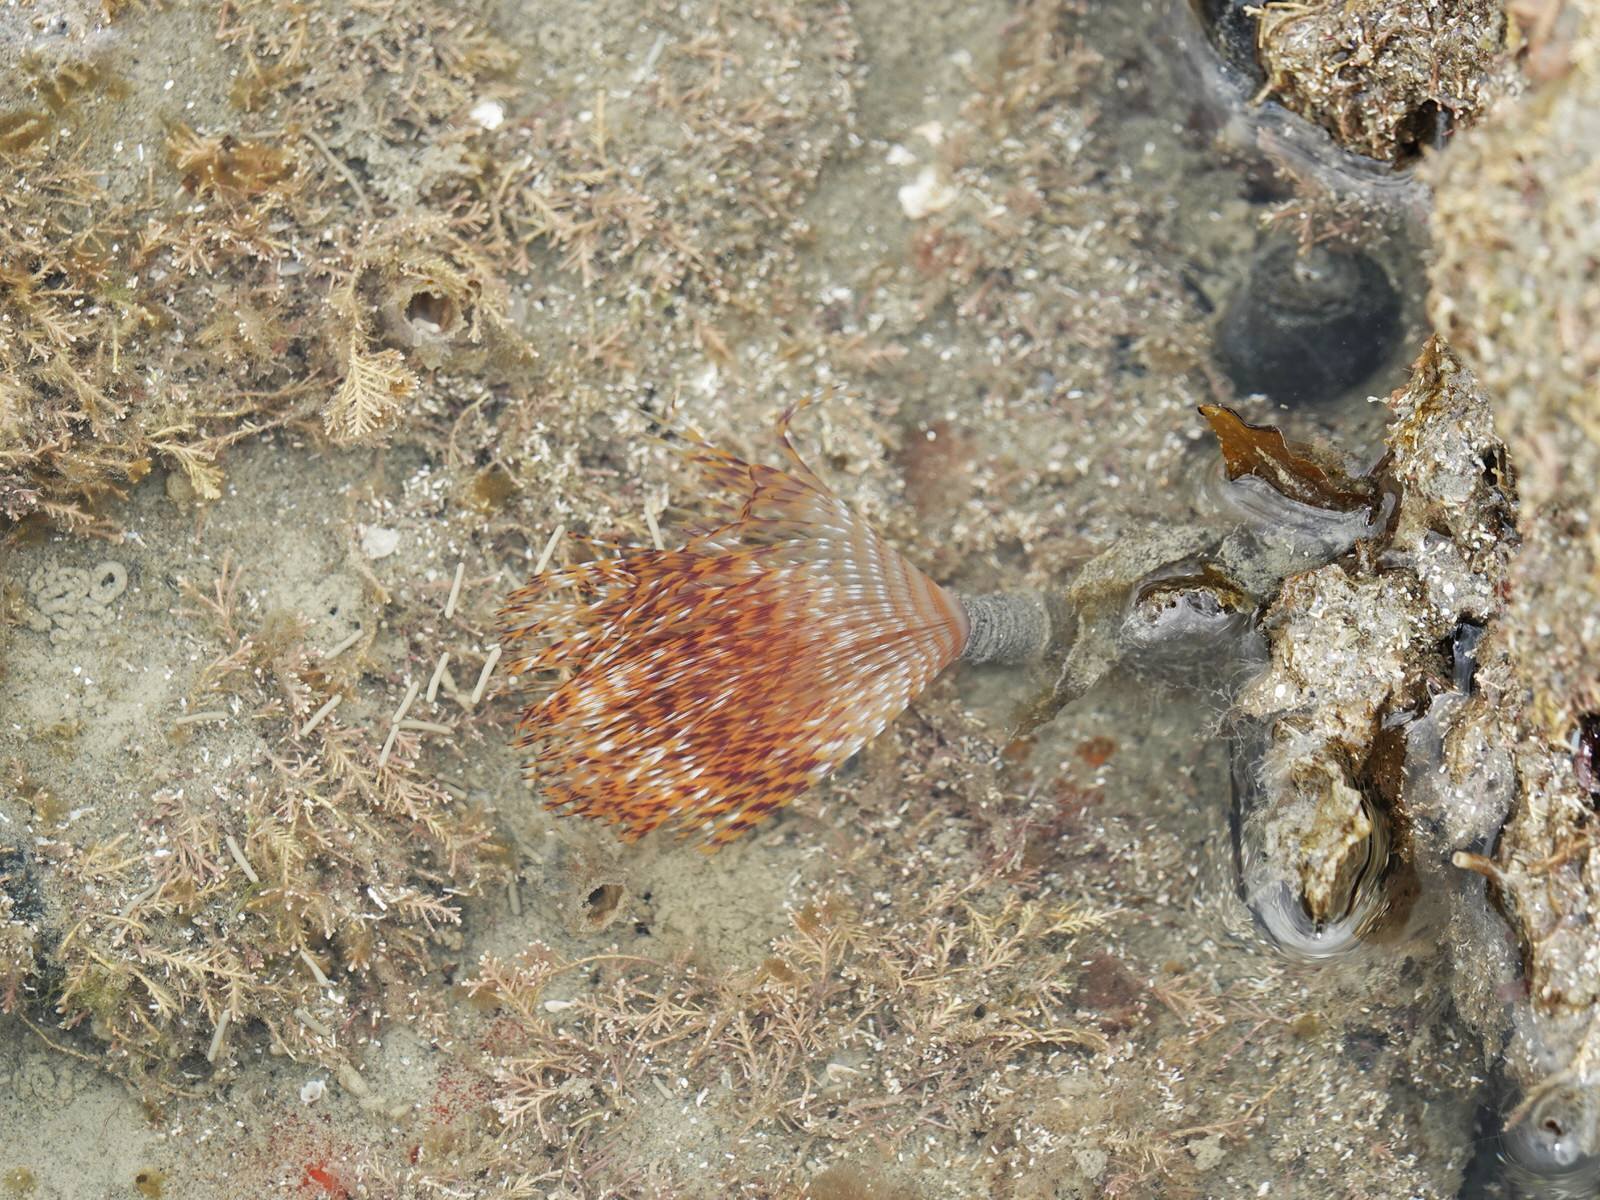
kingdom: Animalia
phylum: Annelida
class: Polychaeta
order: Sabellida
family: Sabellidae
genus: Sabella
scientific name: Sabella spallanzanii
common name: Feather duster worm
